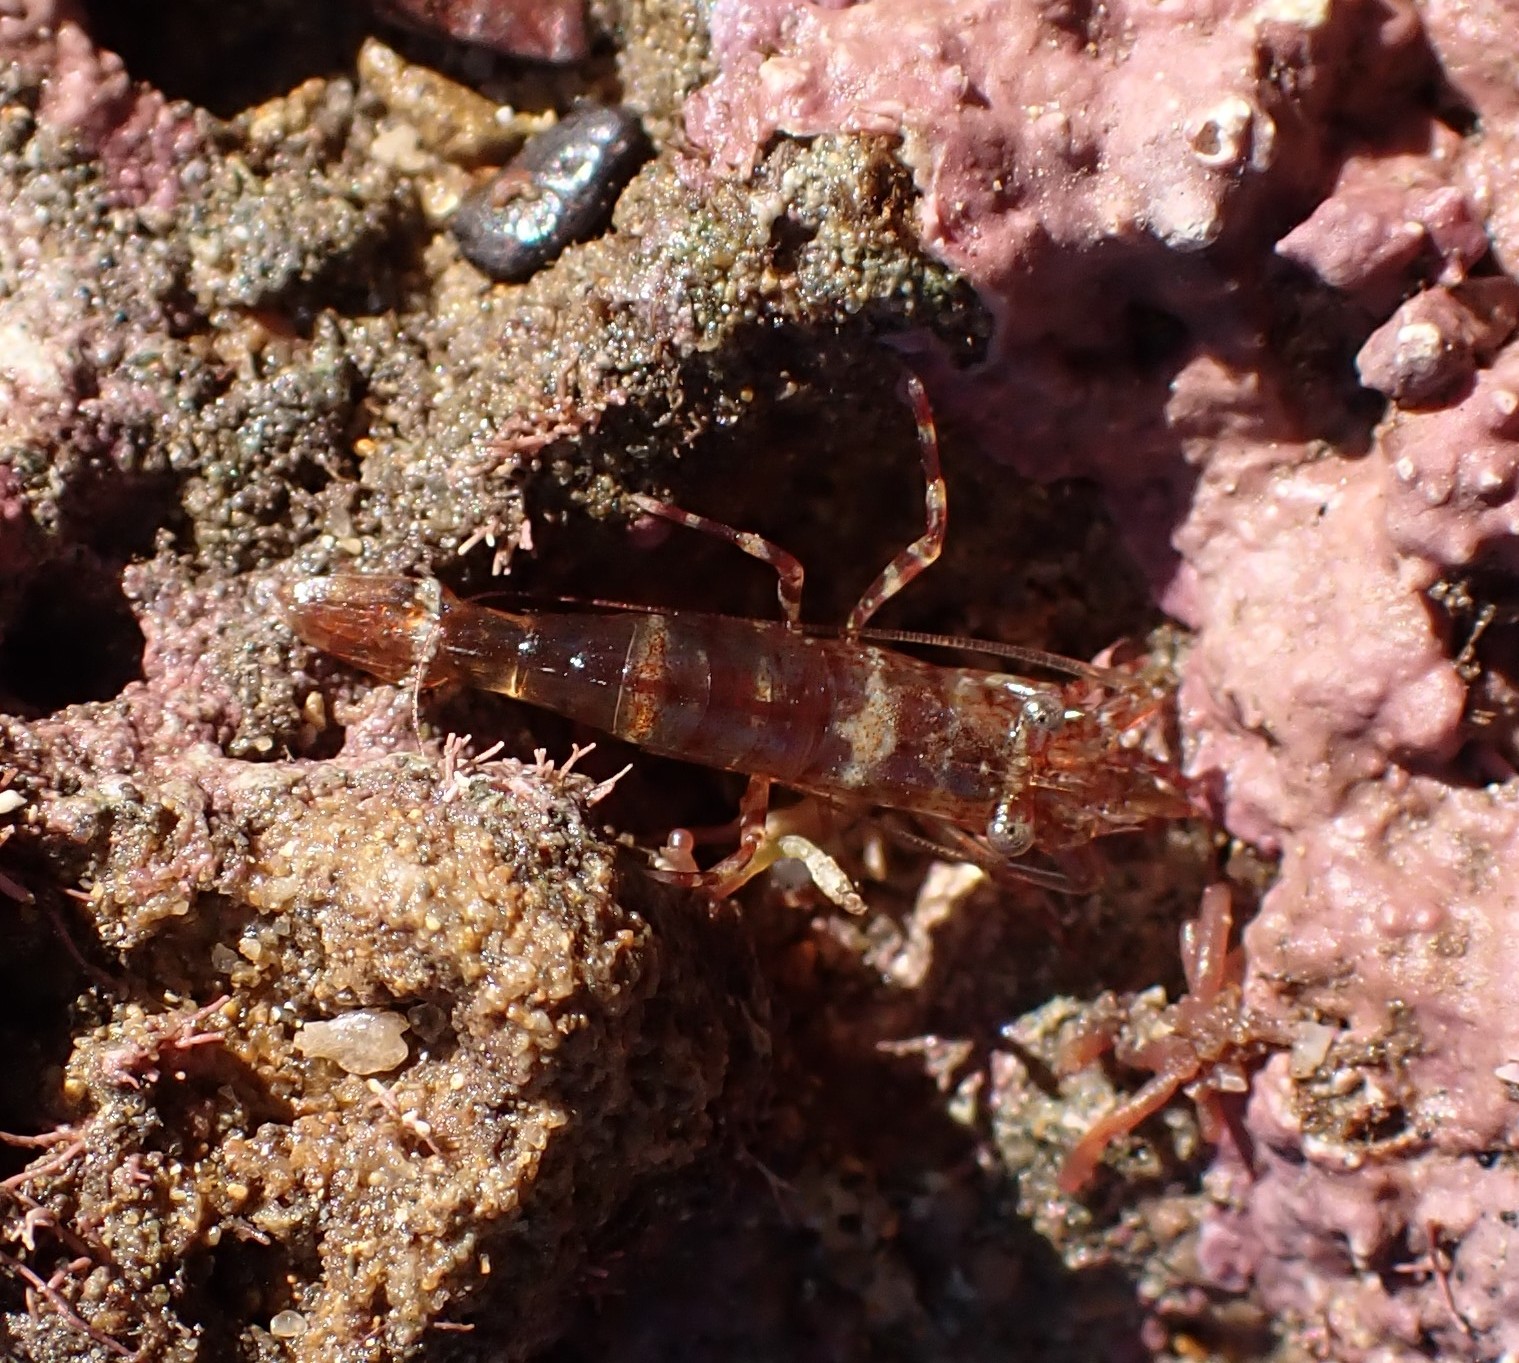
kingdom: Animalia
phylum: Arthropoda
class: Malacostraca
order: Decapoda
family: Hippolytidae
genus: Alope
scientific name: Alope orientalis
